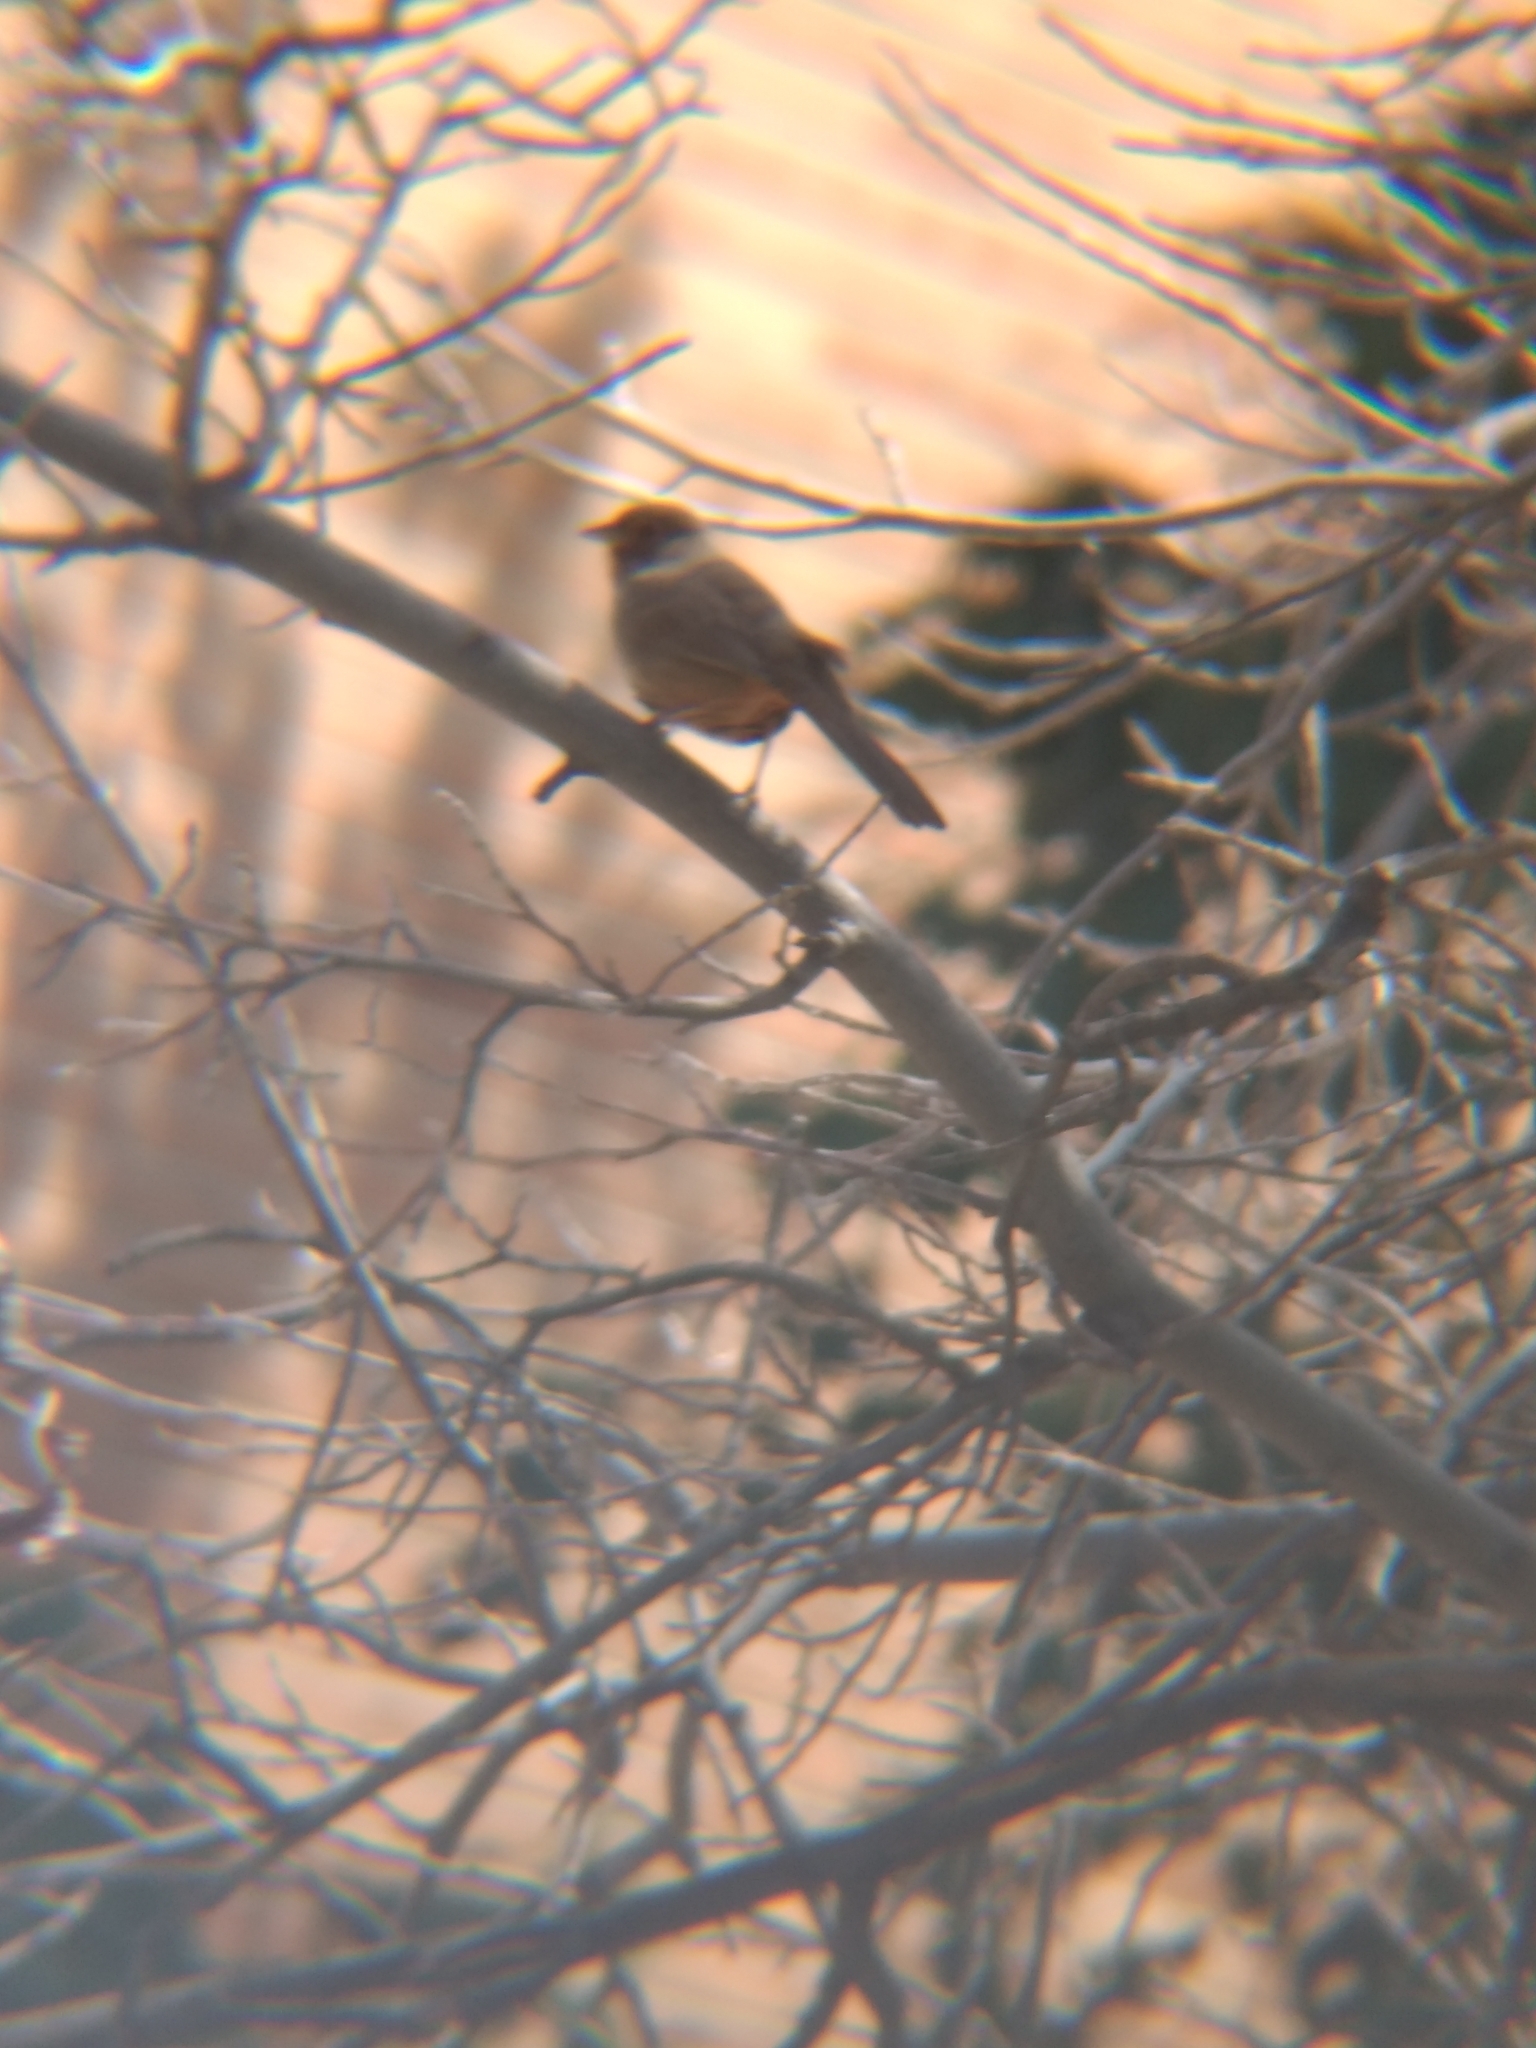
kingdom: Animalia
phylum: Chordata
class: Aves
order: Passeriformes
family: Passerellidae
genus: Melozone
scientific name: Melozone crissalis
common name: California towhee
